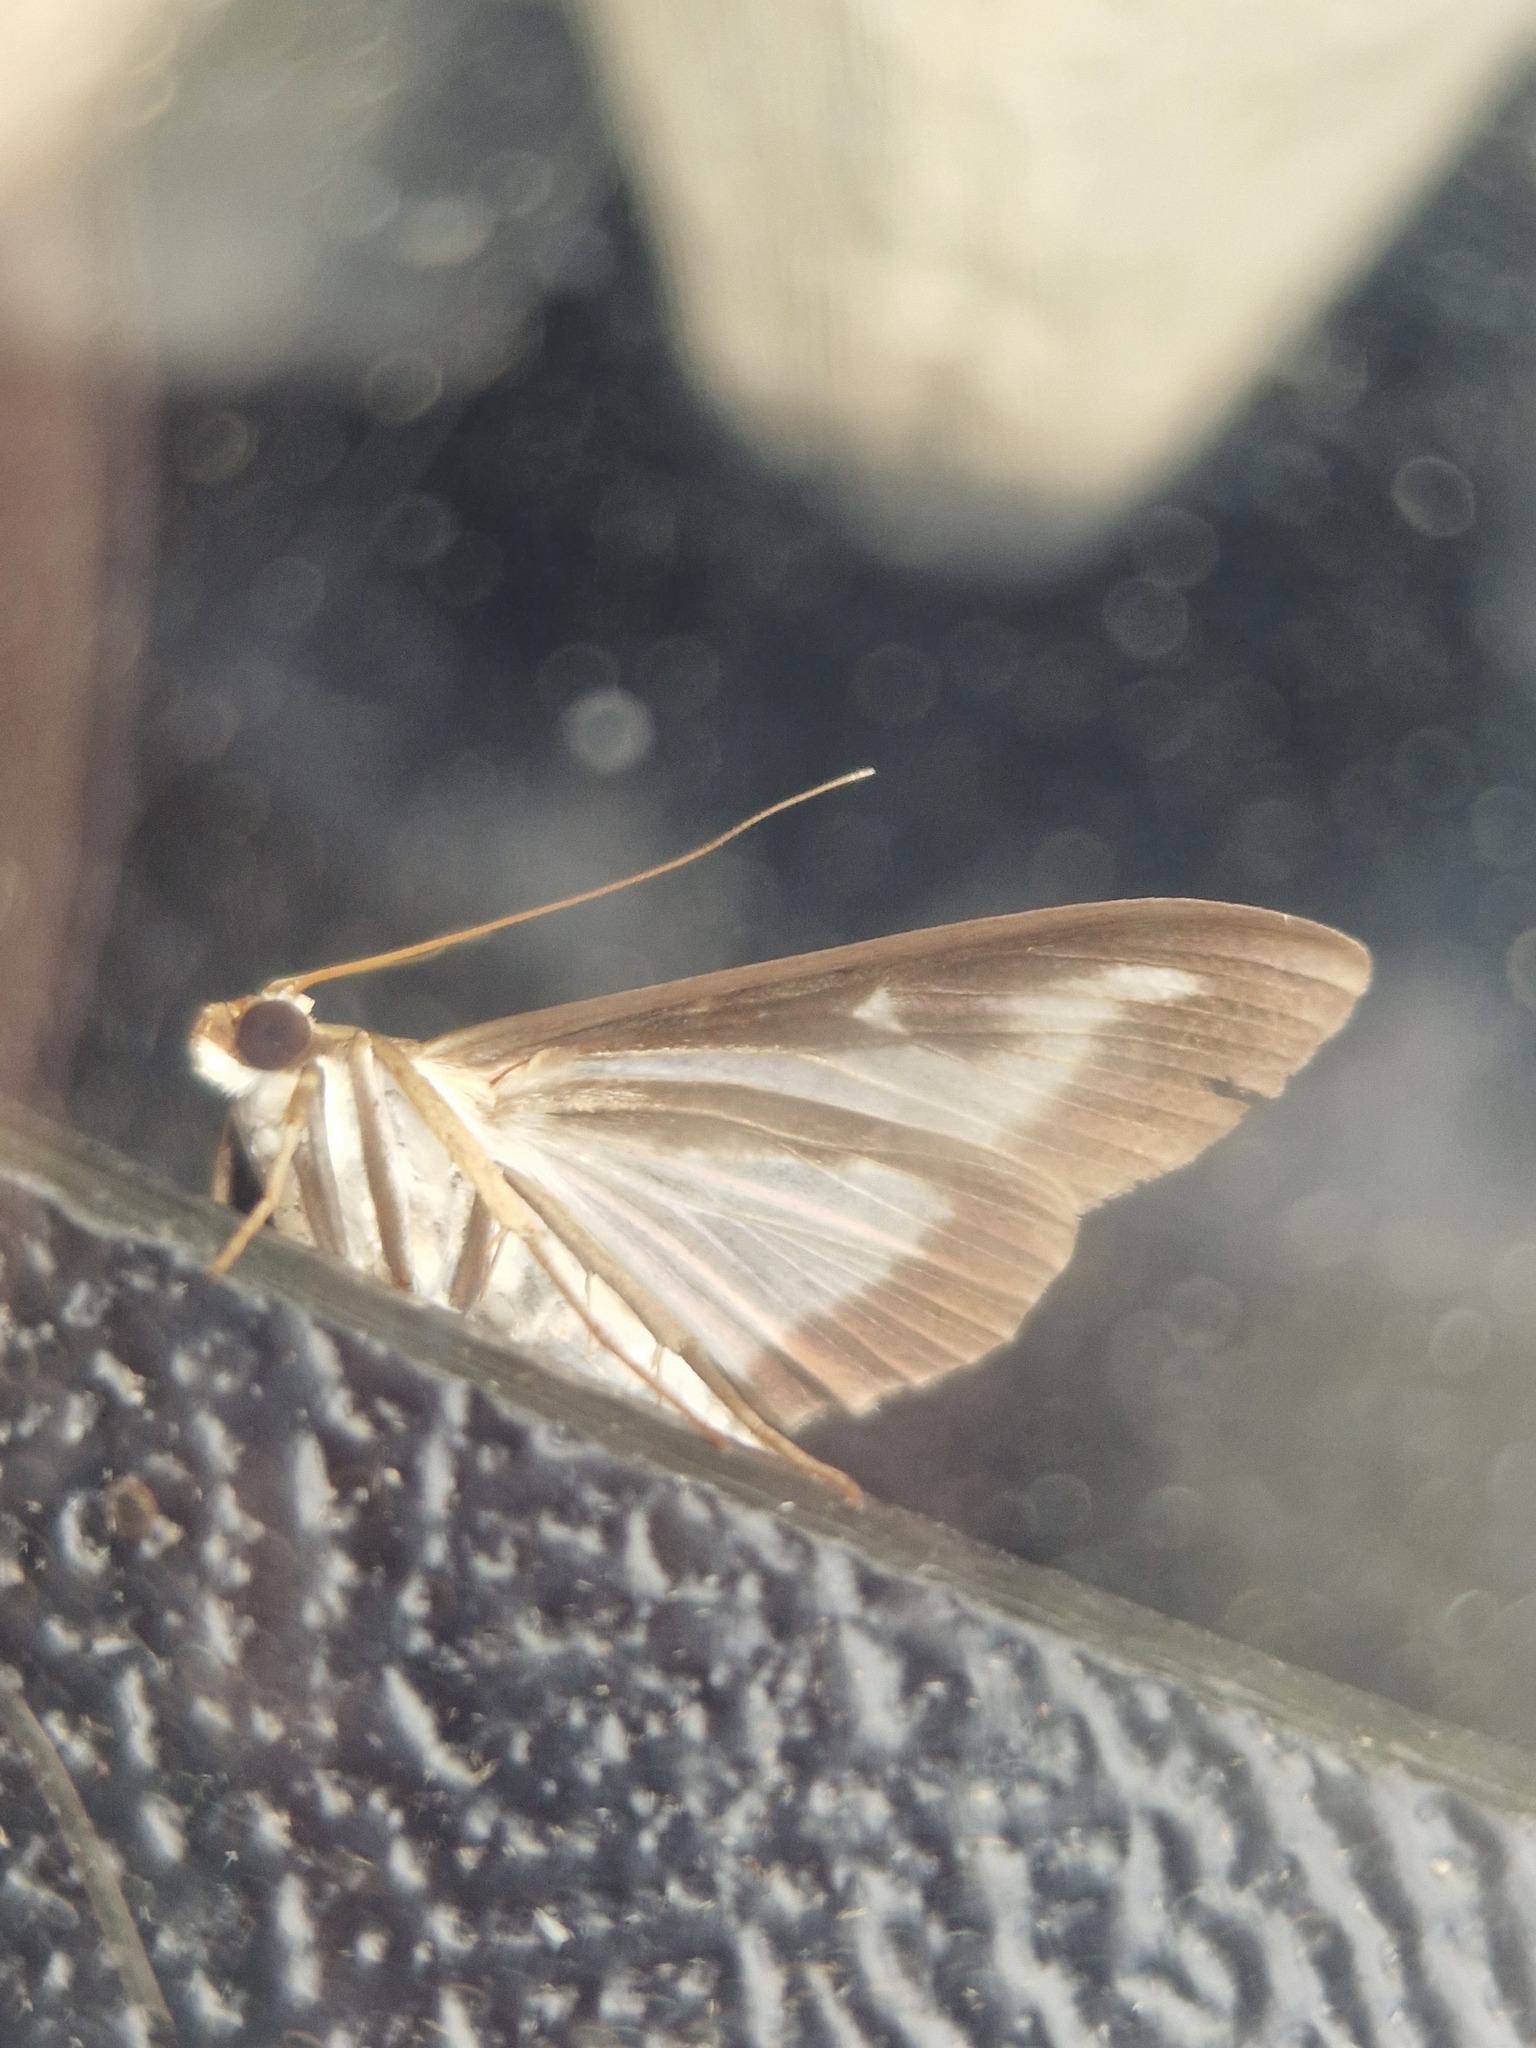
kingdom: Animalia
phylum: Arthropoda
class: Insecta
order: Lepidoptera
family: Crambidae
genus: Cydalima
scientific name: Cydalima perspectalis
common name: Box tree moth
